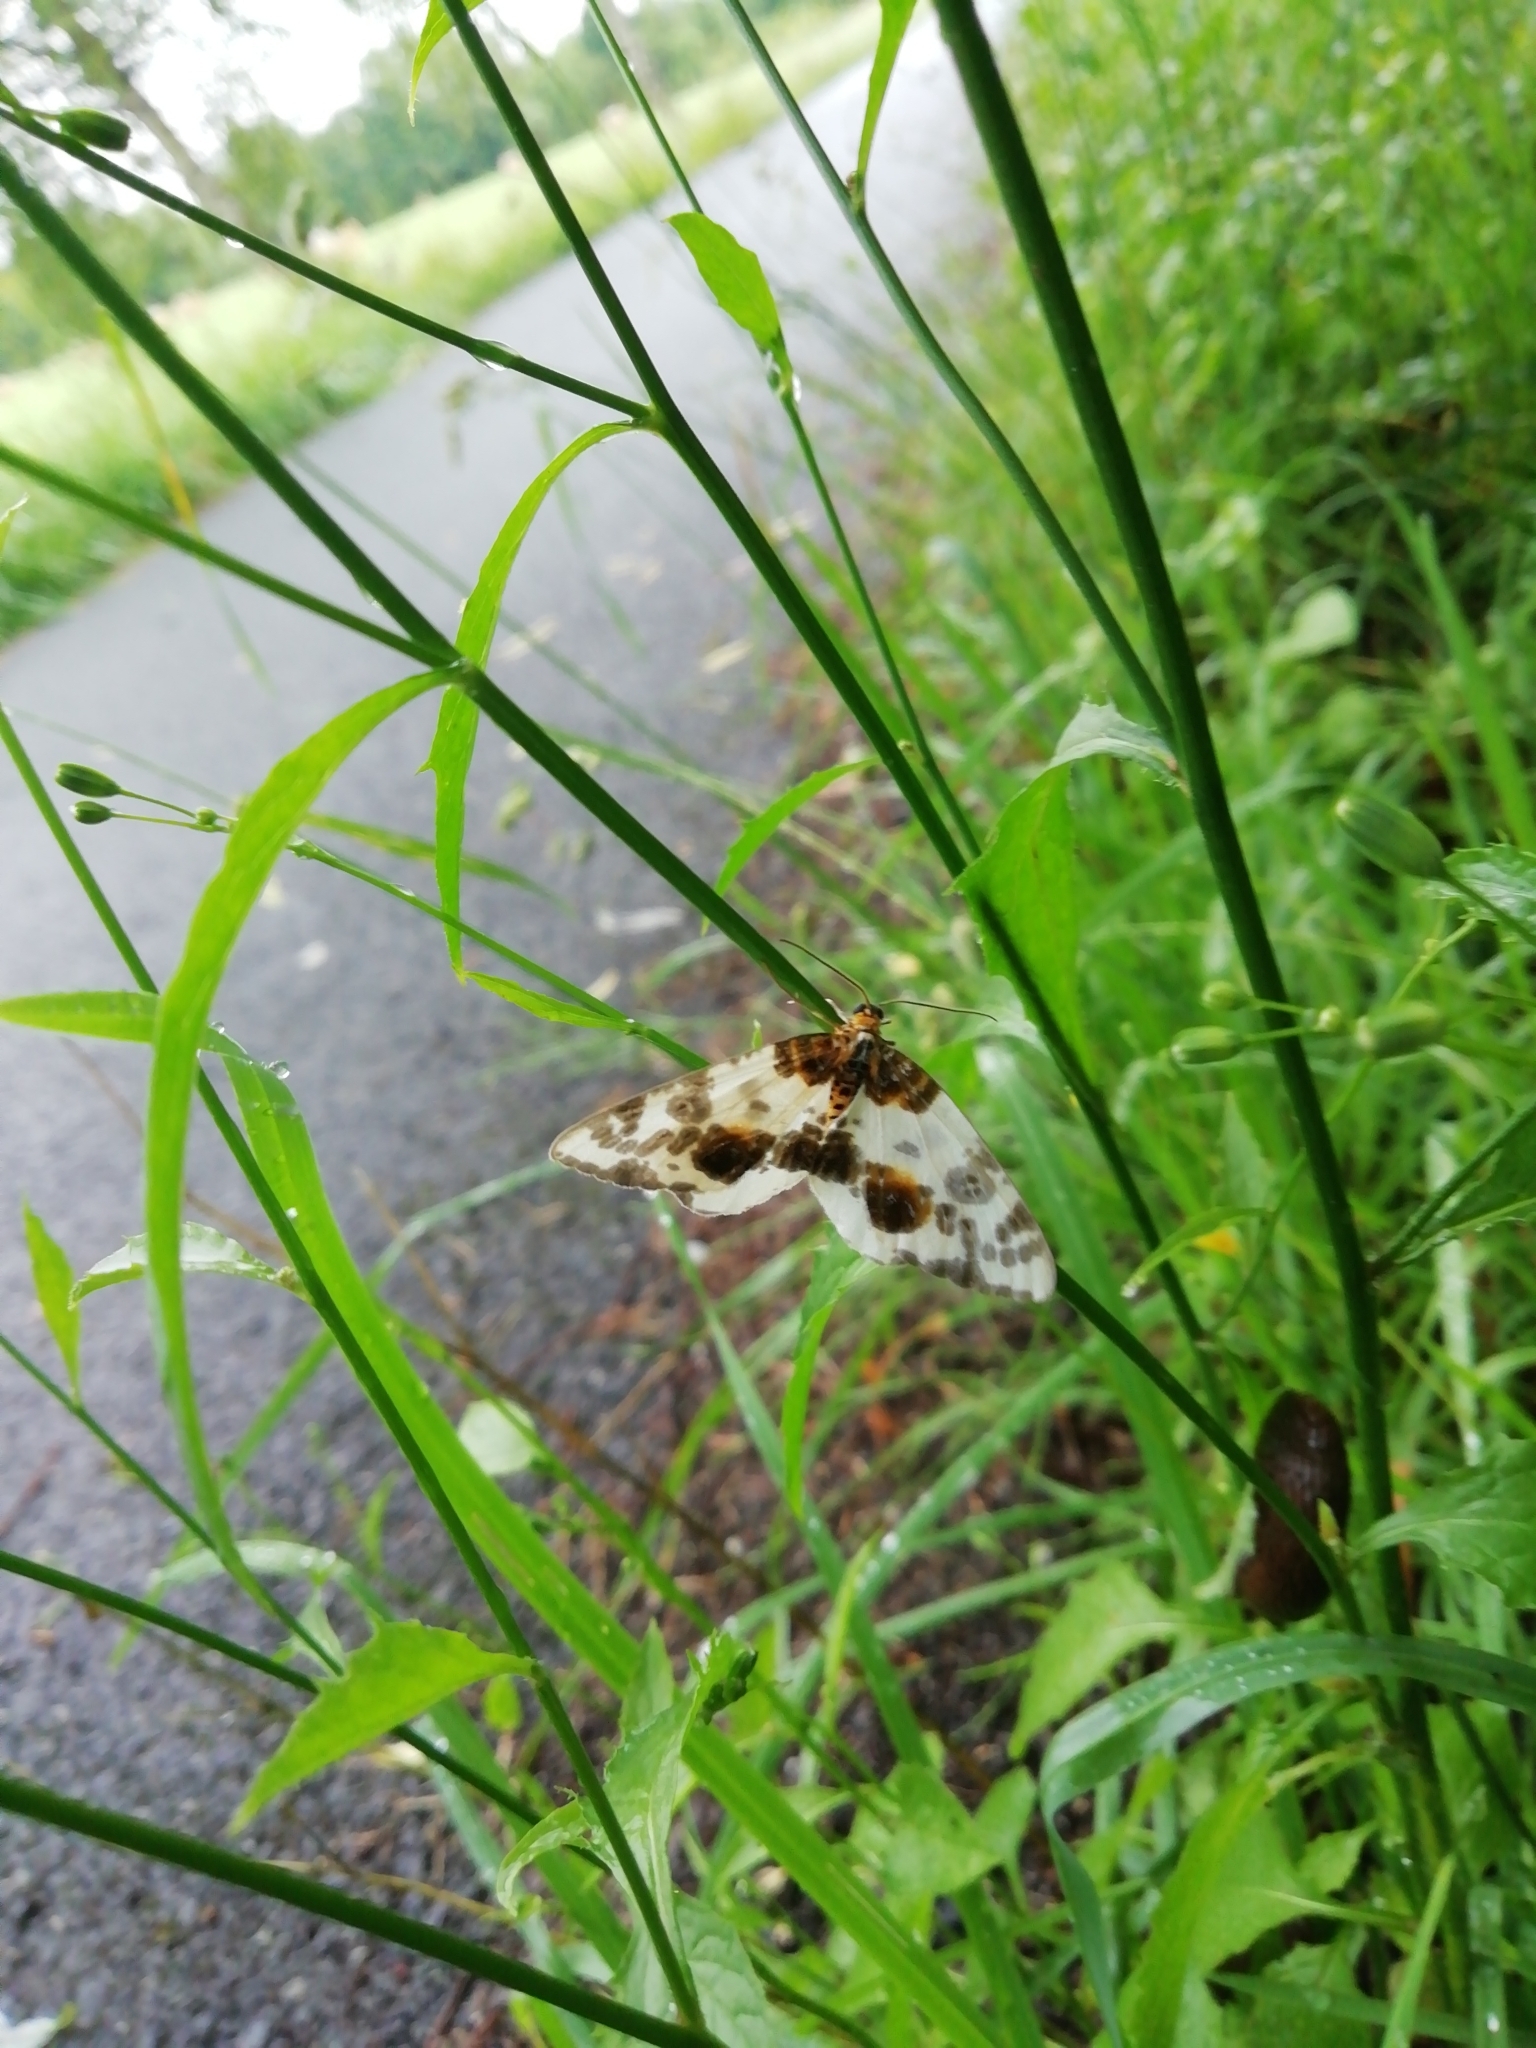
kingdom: Animalia
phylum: Arthropoda
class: Insecta
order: Lepidoptera
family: Geometridae
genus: Abraxas
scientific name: Abraxas sylvata
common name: Clouded magpie
